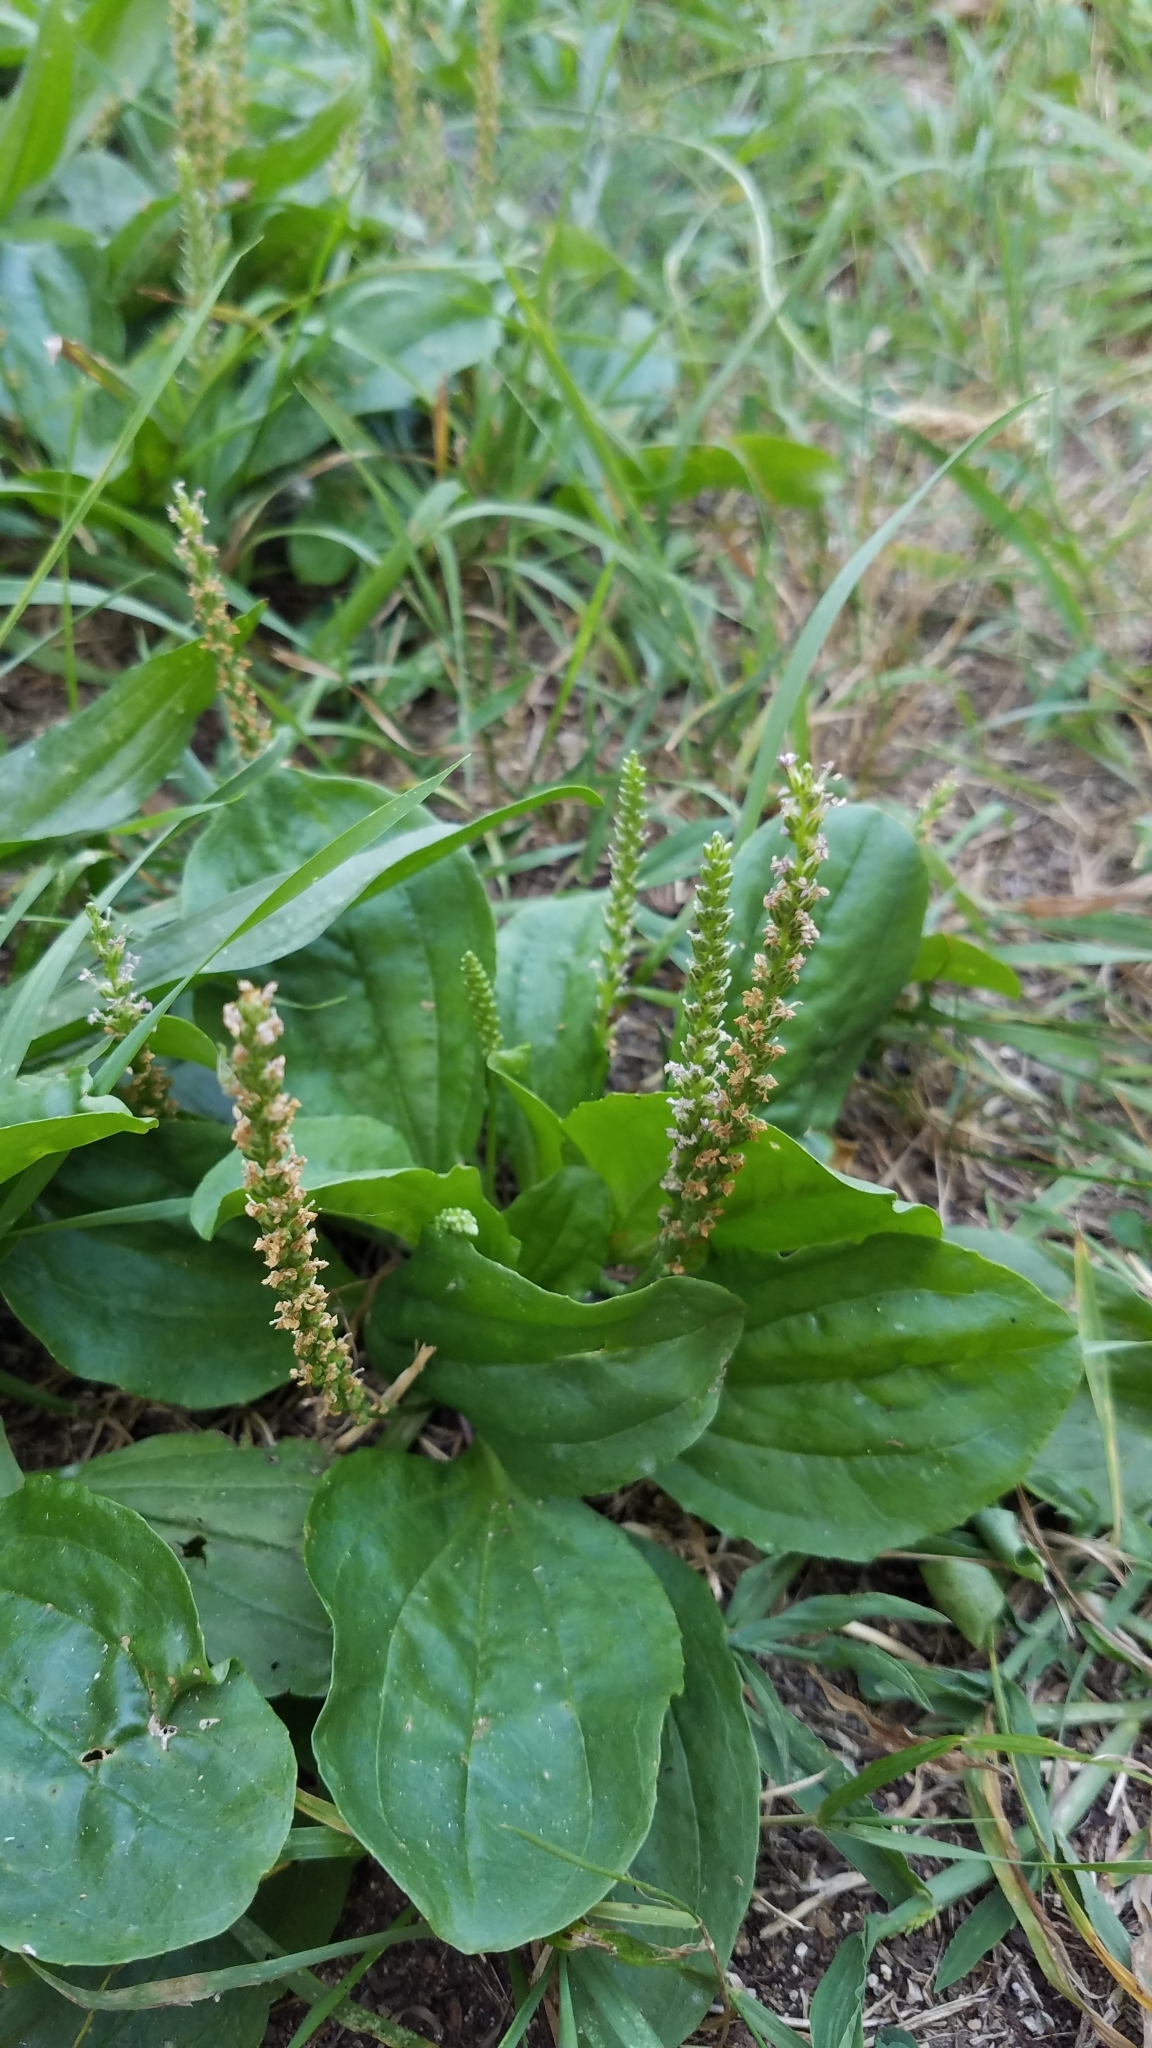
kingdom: Plantae
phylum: Tracheophyta
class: Magnoliopsida
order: Lamiales
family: Plantaginaceae
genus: Plantago
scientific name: Plantago major
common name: Common plantain
